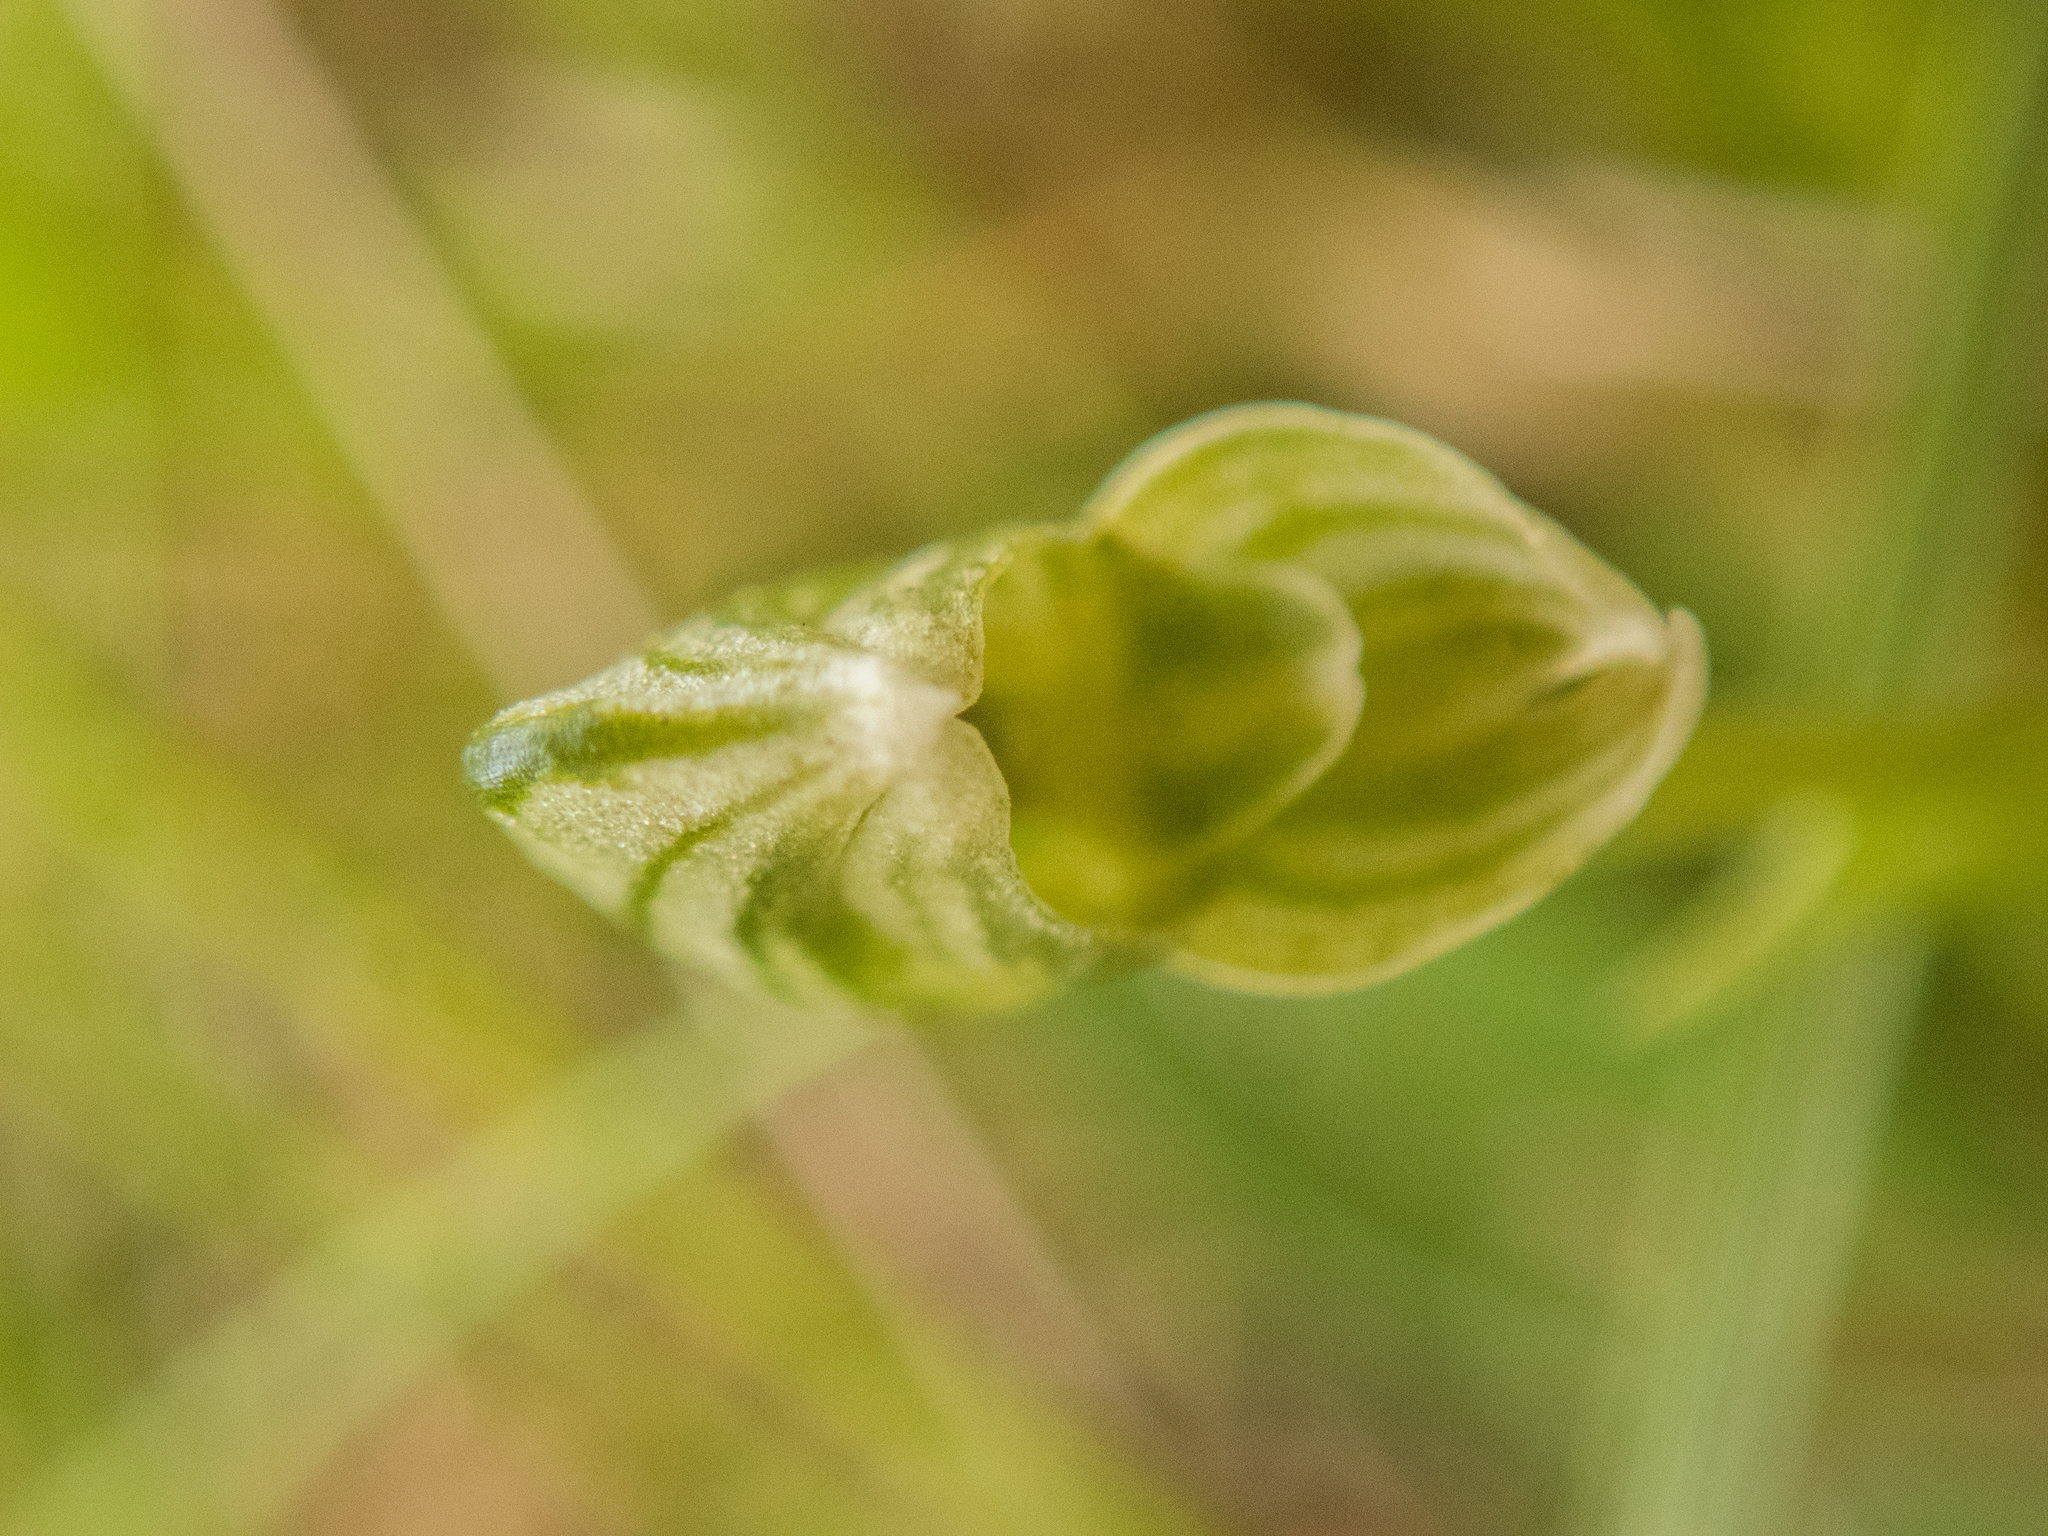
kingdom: Plantae
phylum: Tracheophyta
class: Liliopsida
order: Asparagales
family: Orchidaceae
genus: Pterostylis
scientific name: Pterostylis tanypoda
